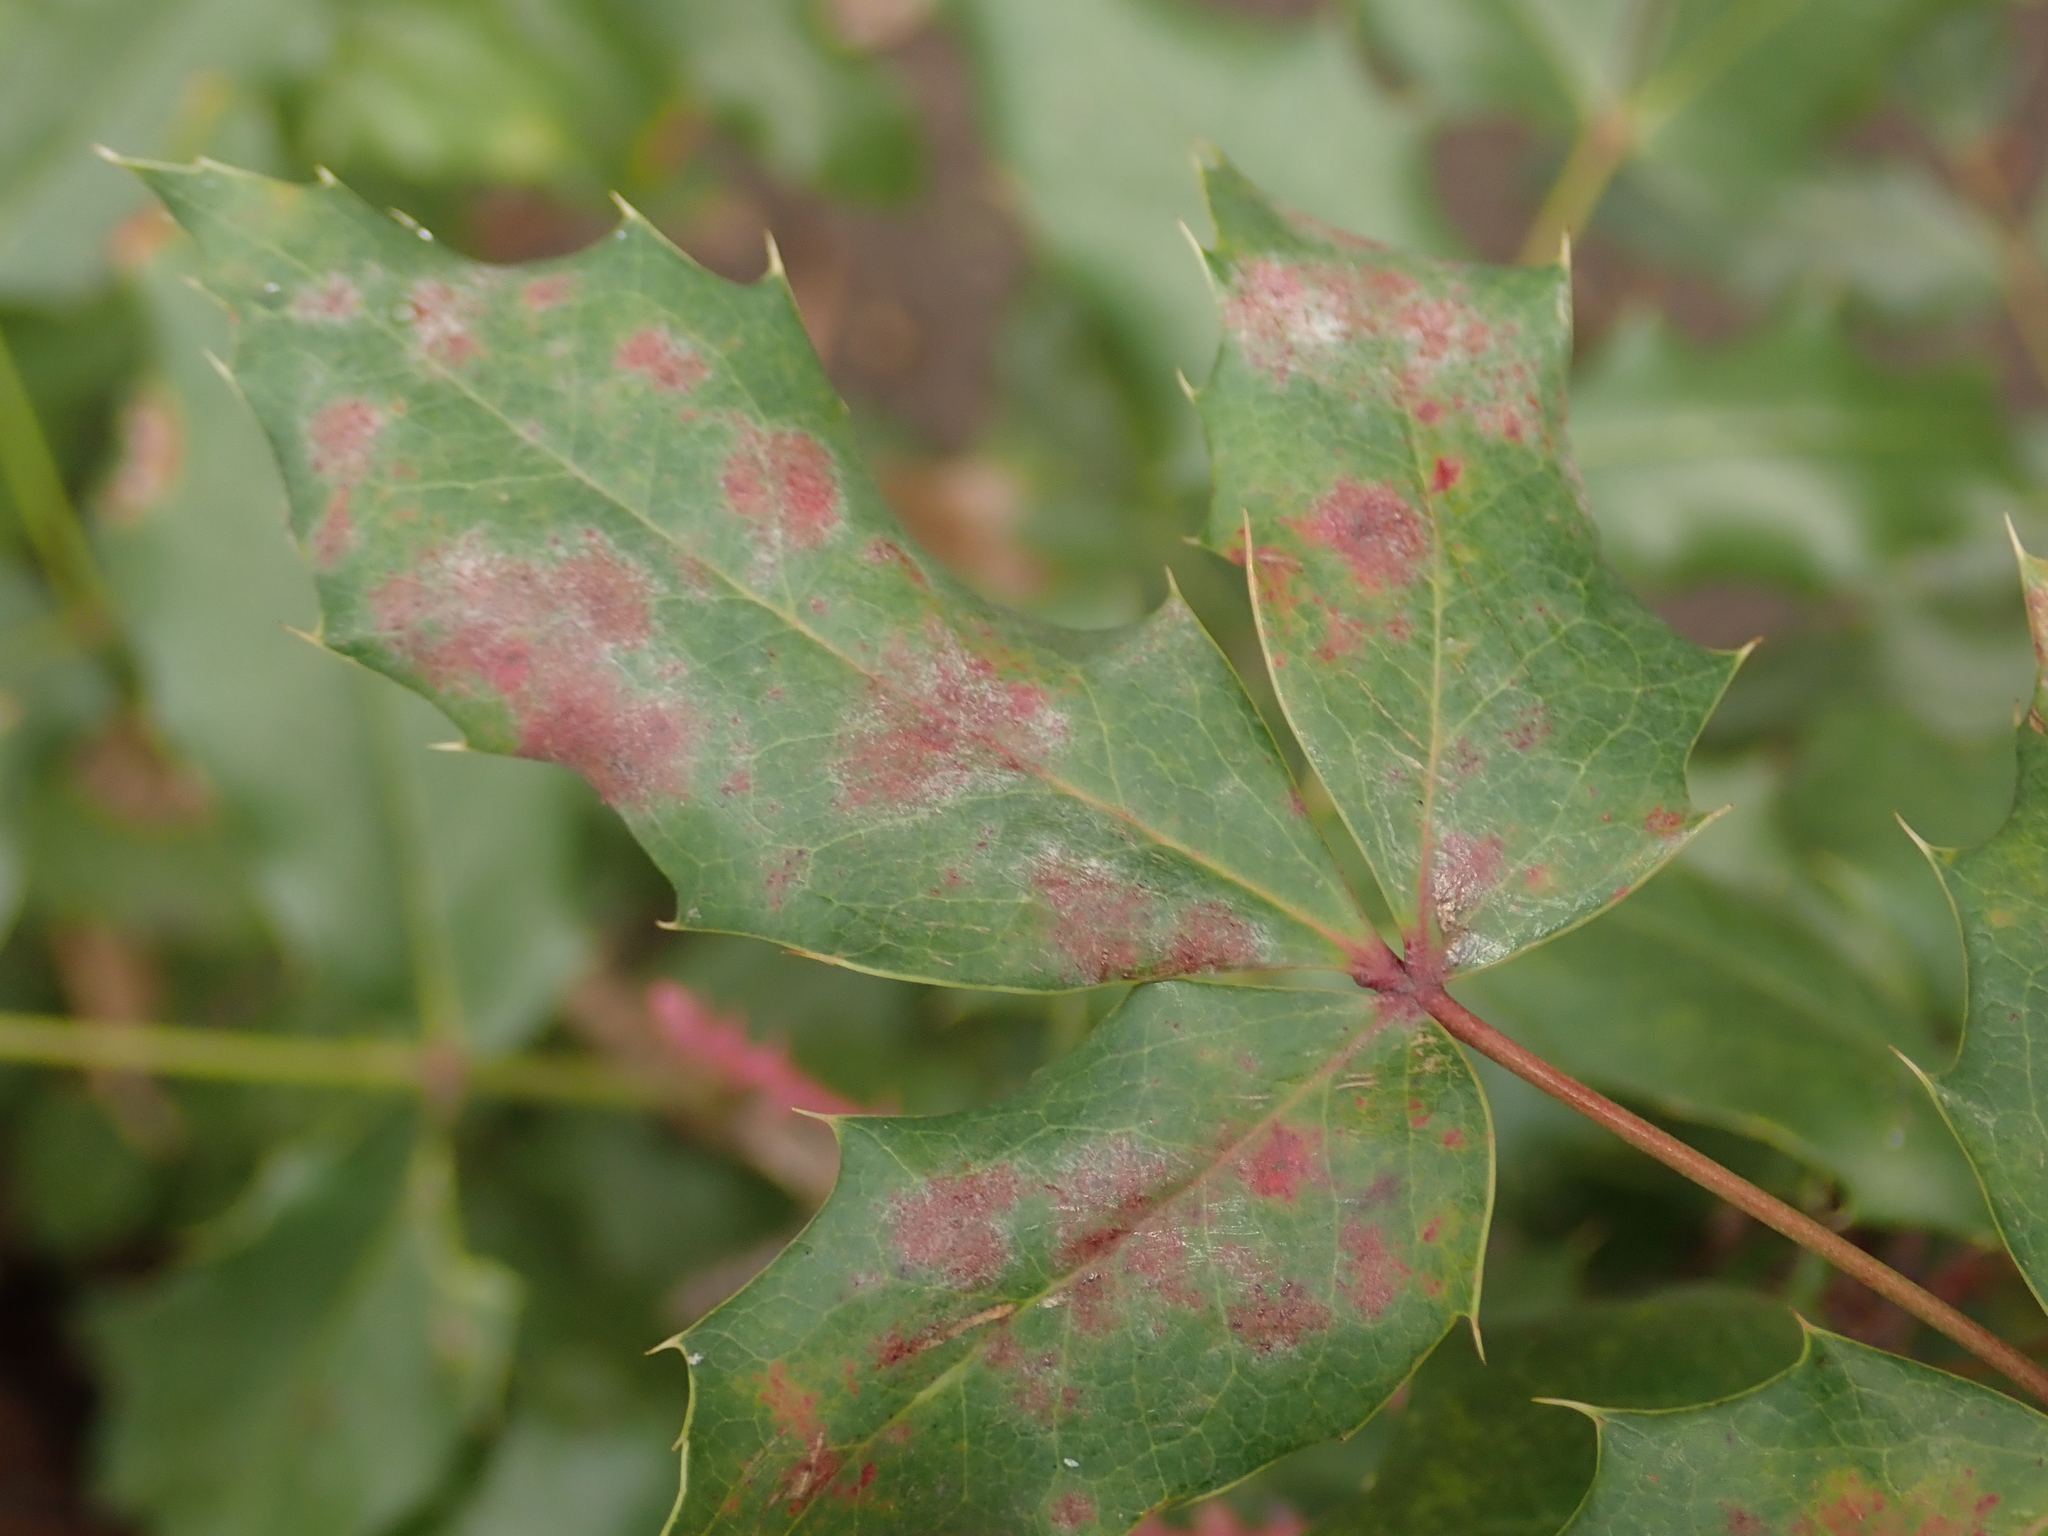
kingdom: Plantae
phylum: Tracheophyta
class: Magnoliopsida
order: Ranunculales
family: Berberidaceae
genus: Mahonia
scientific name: Mahonia aquifolium
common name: Oregon-grape
